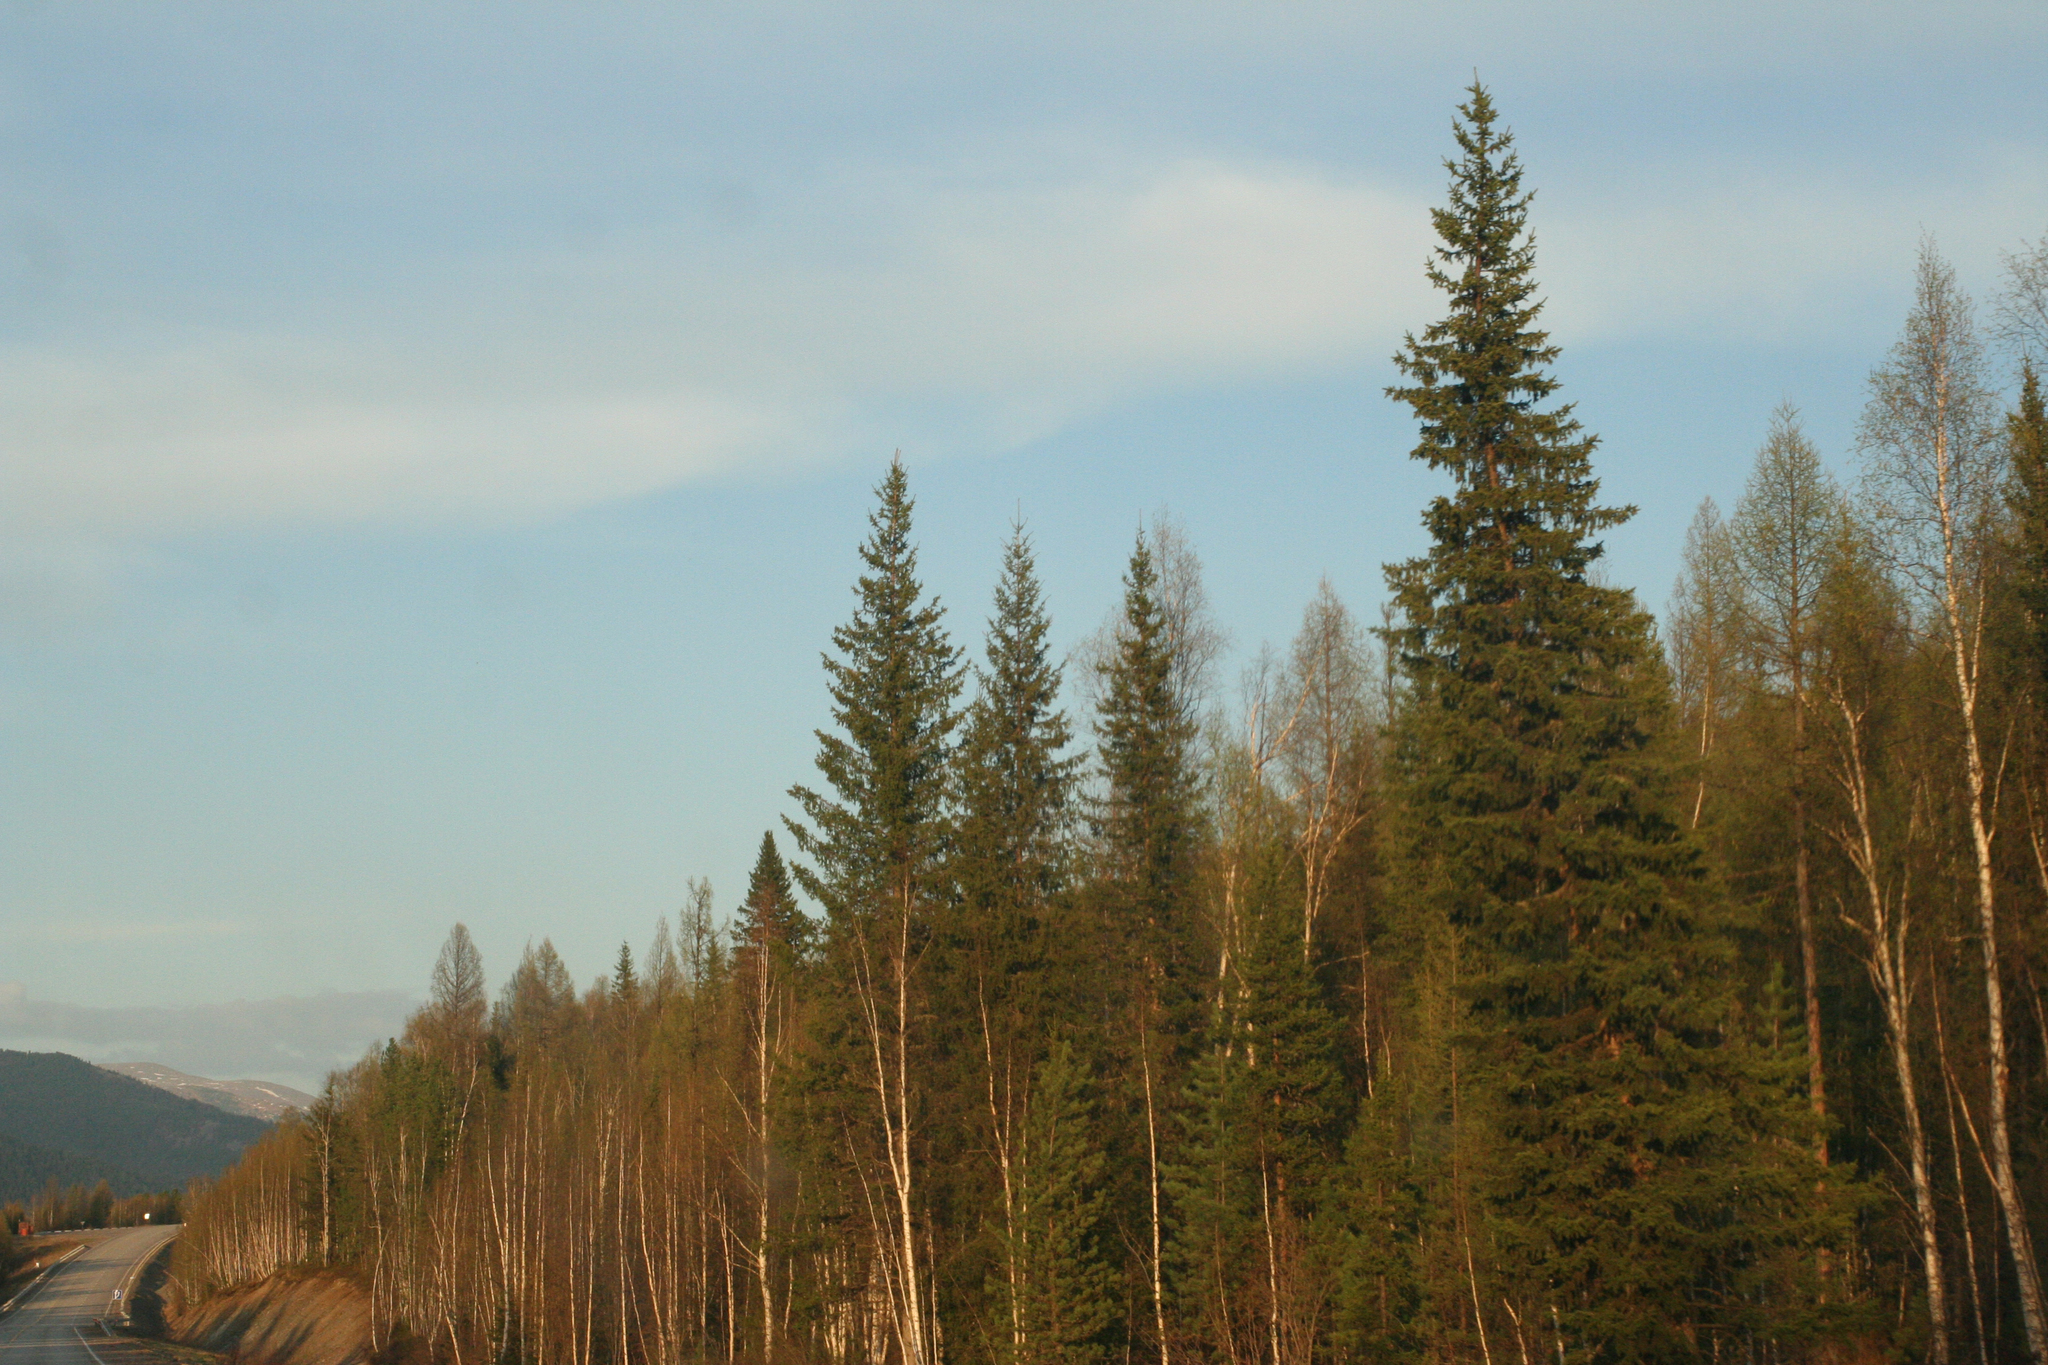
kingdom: Plantae
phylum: Tracheophyta
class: Pinopsida
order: Pinales
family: Pinaceae
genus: Picea
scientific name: Picea obovata
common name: Siberian spruce
